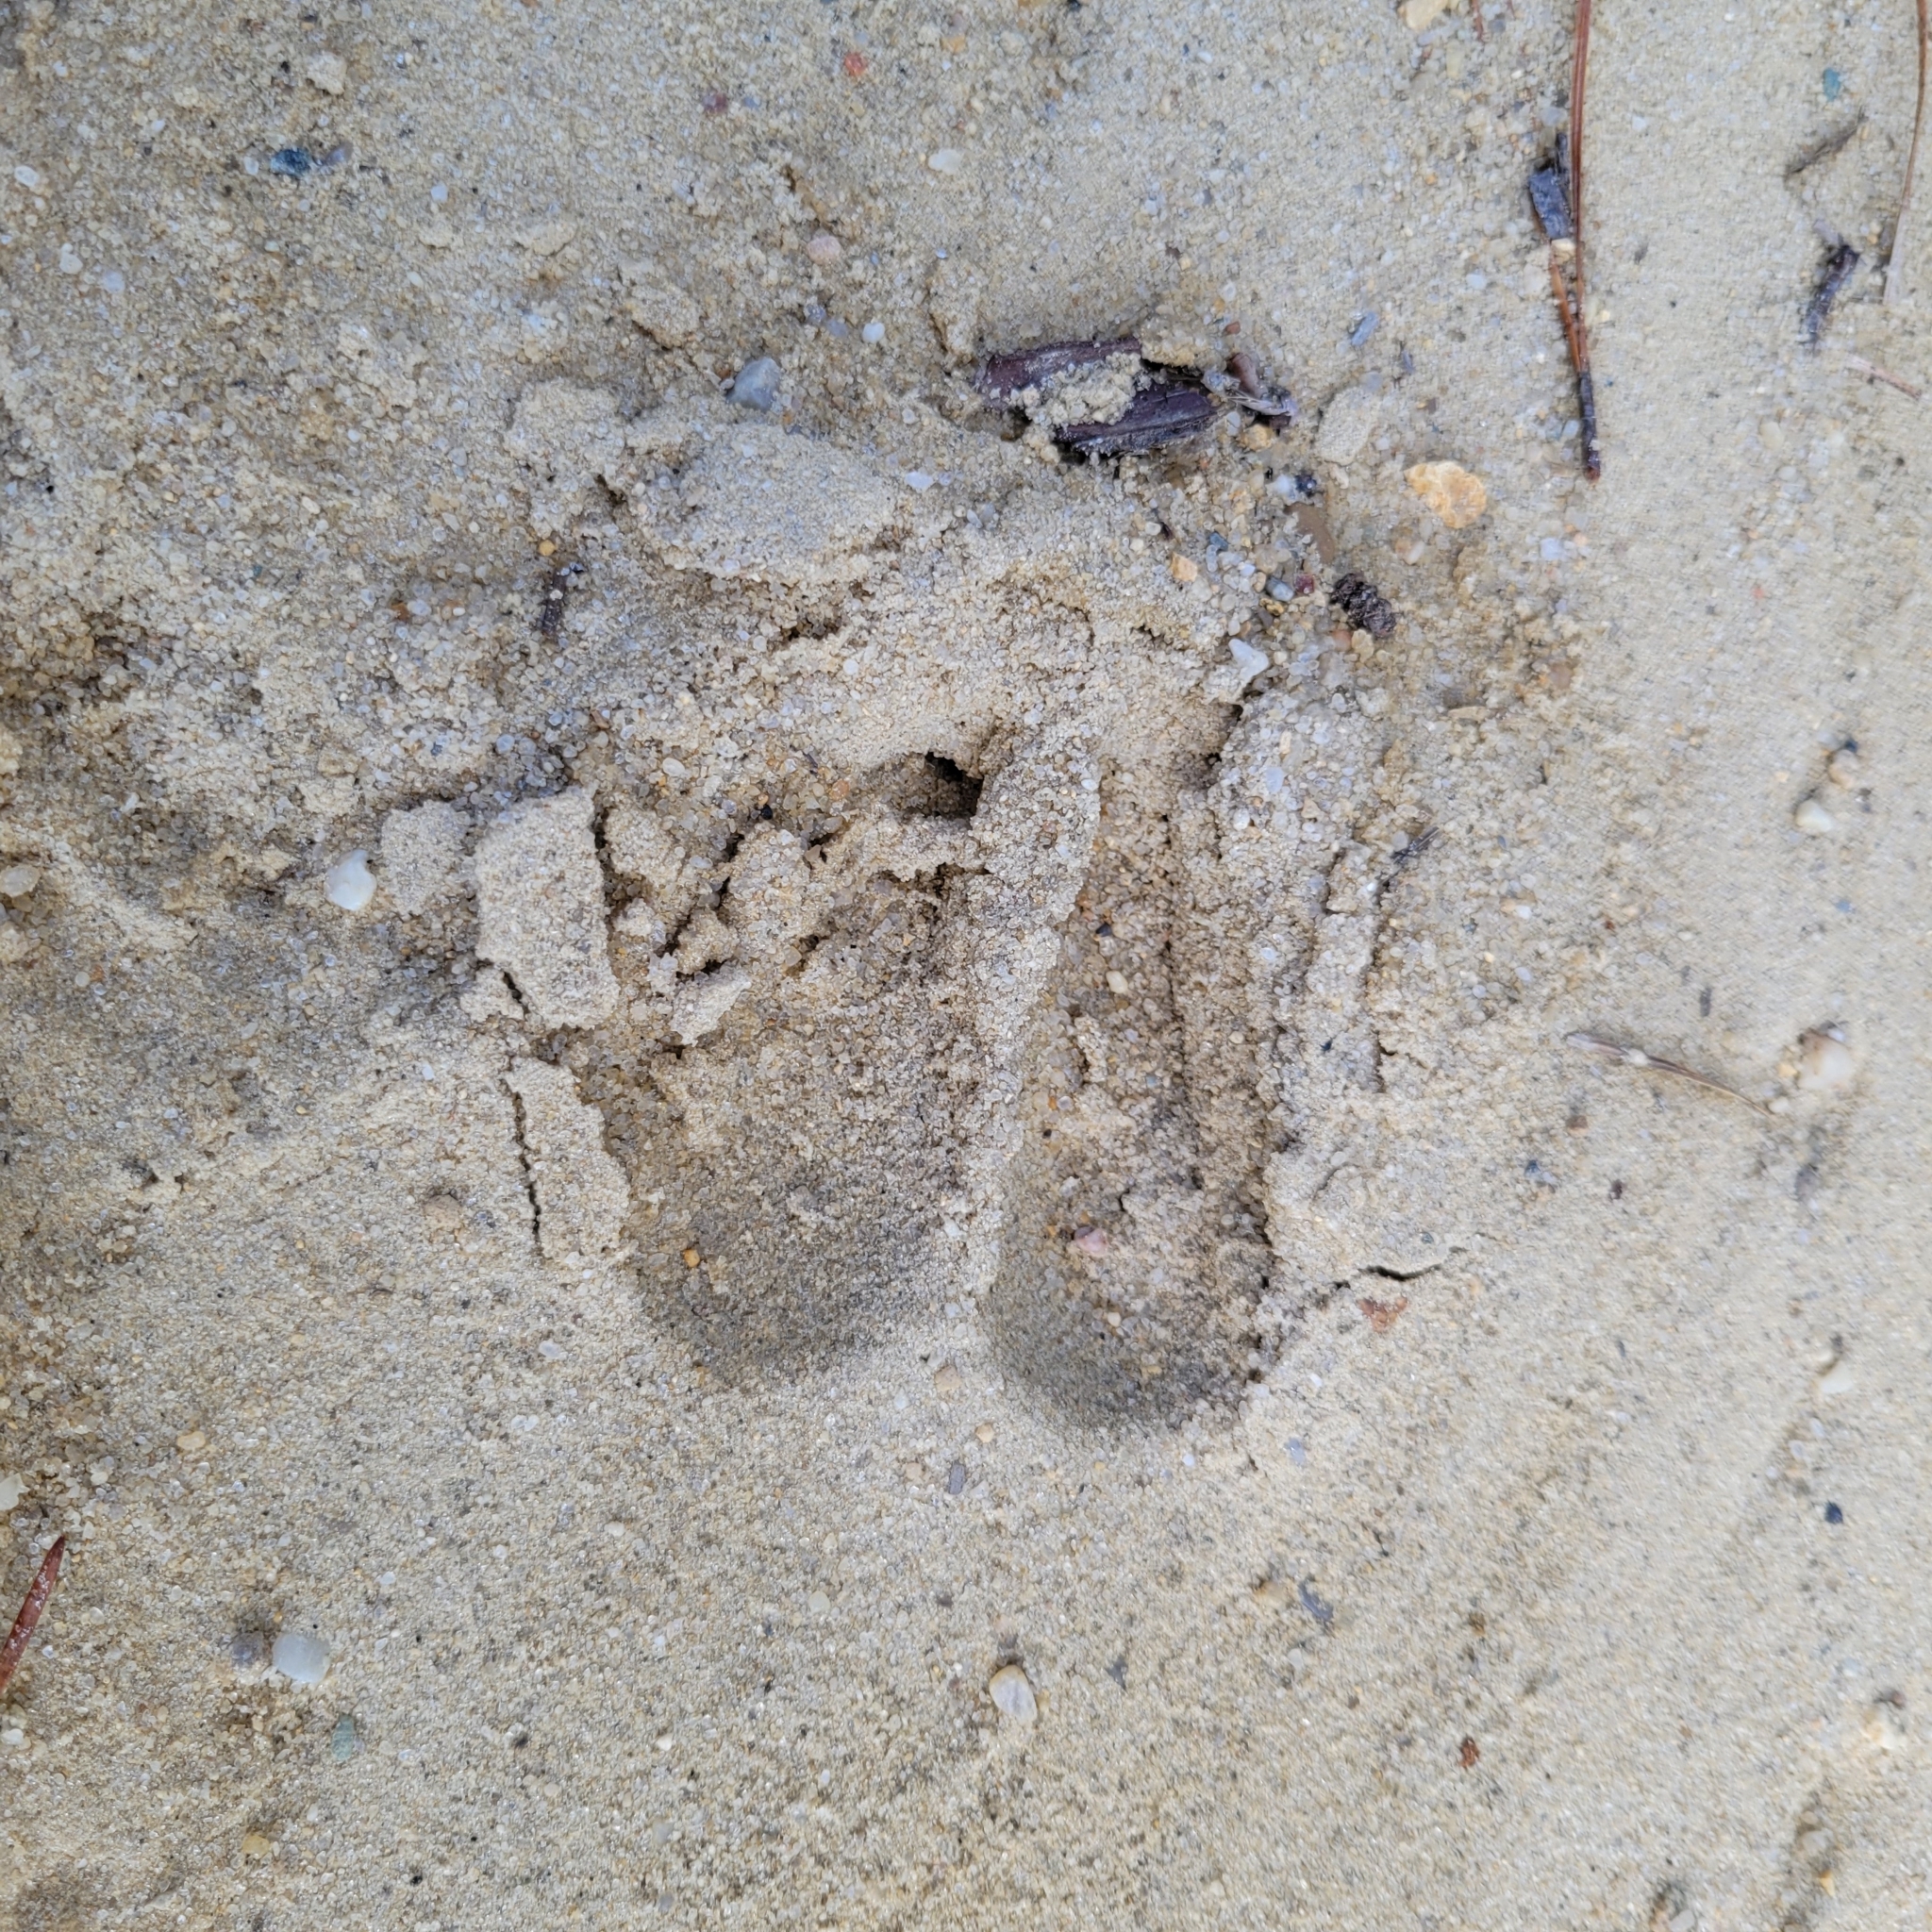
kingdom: Animalia
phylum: Chordata
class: Mammalia
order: Artiodactyla
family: Cervidae
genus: Odocoileus
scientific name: Odocoileus virginianus
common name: White-tailed deer
